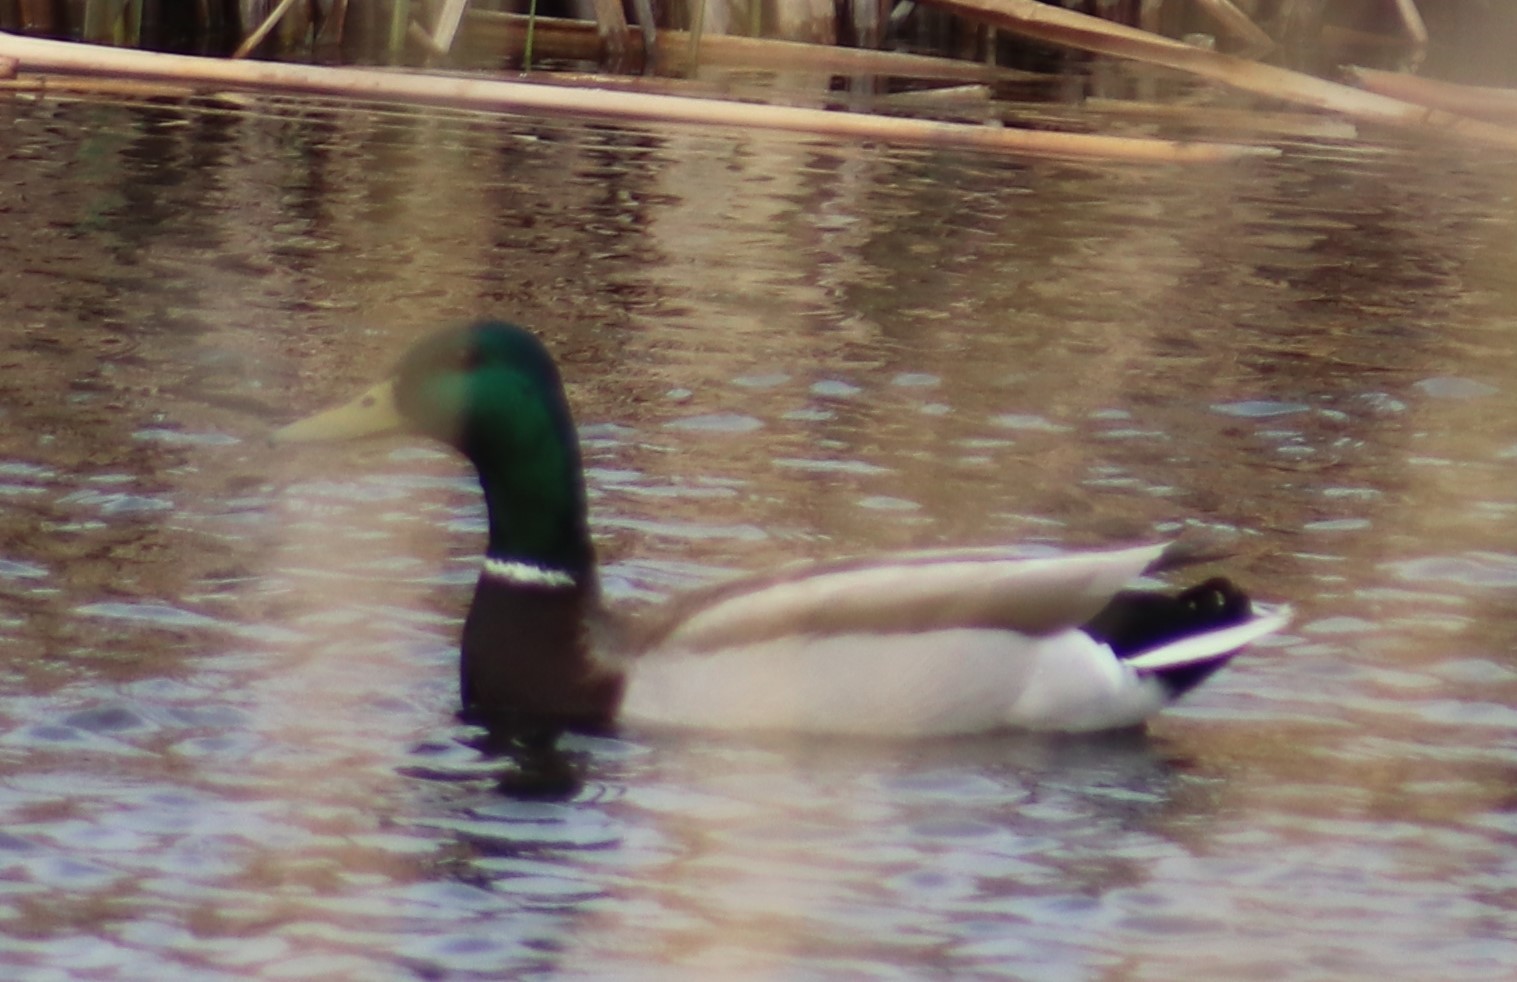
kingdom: Animalia
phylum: Chordata
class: Aves
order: Anseriformes
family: Anatidae
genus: Anas
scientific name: Anas platyrhynchos
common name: Mallard
